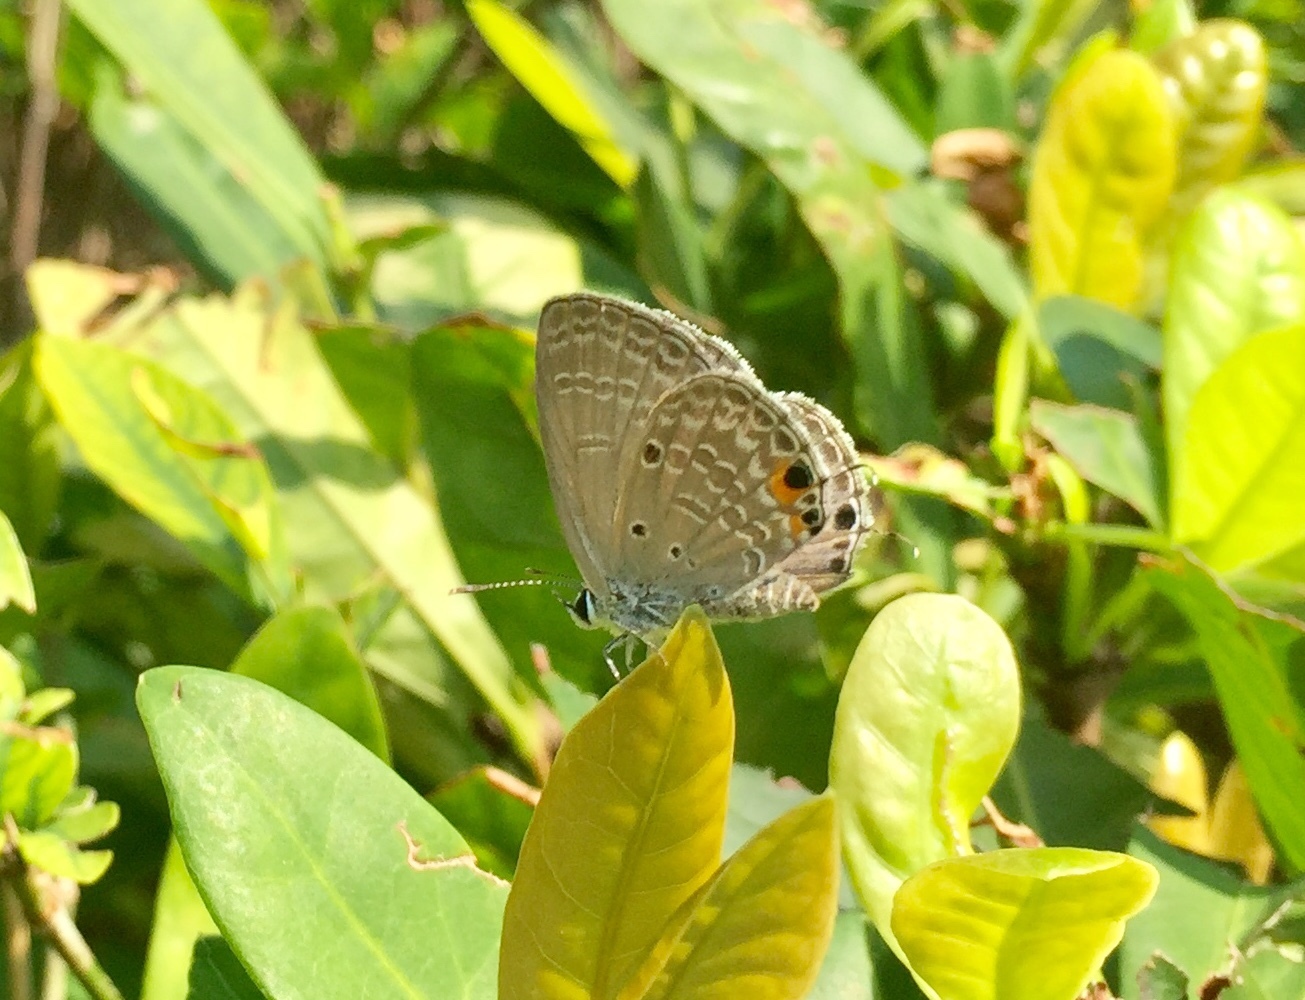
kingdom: Animalia
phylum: Arthropoda
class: Insecta
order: Lepidoptera
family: Lycaenidae
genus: Luthrodes
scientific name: Luthrodes pandava
